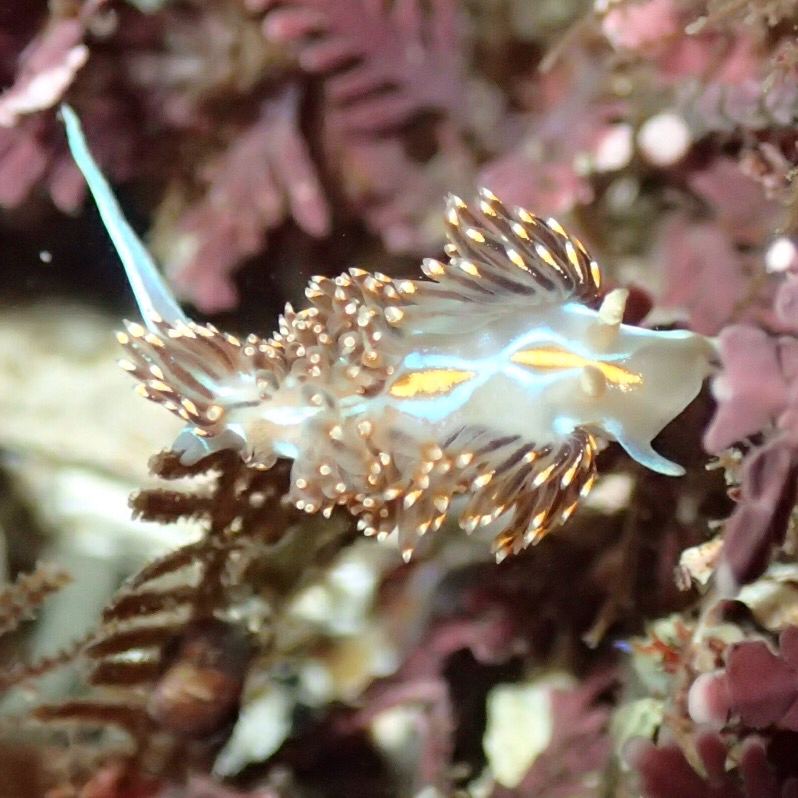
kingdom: Animalia
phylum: Mollusca
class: Gastropoda
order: Nudibranchia
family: Myrrhinidae
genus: Hermissenda
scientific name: Hermissenda crassicornis
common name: Hermissenda
